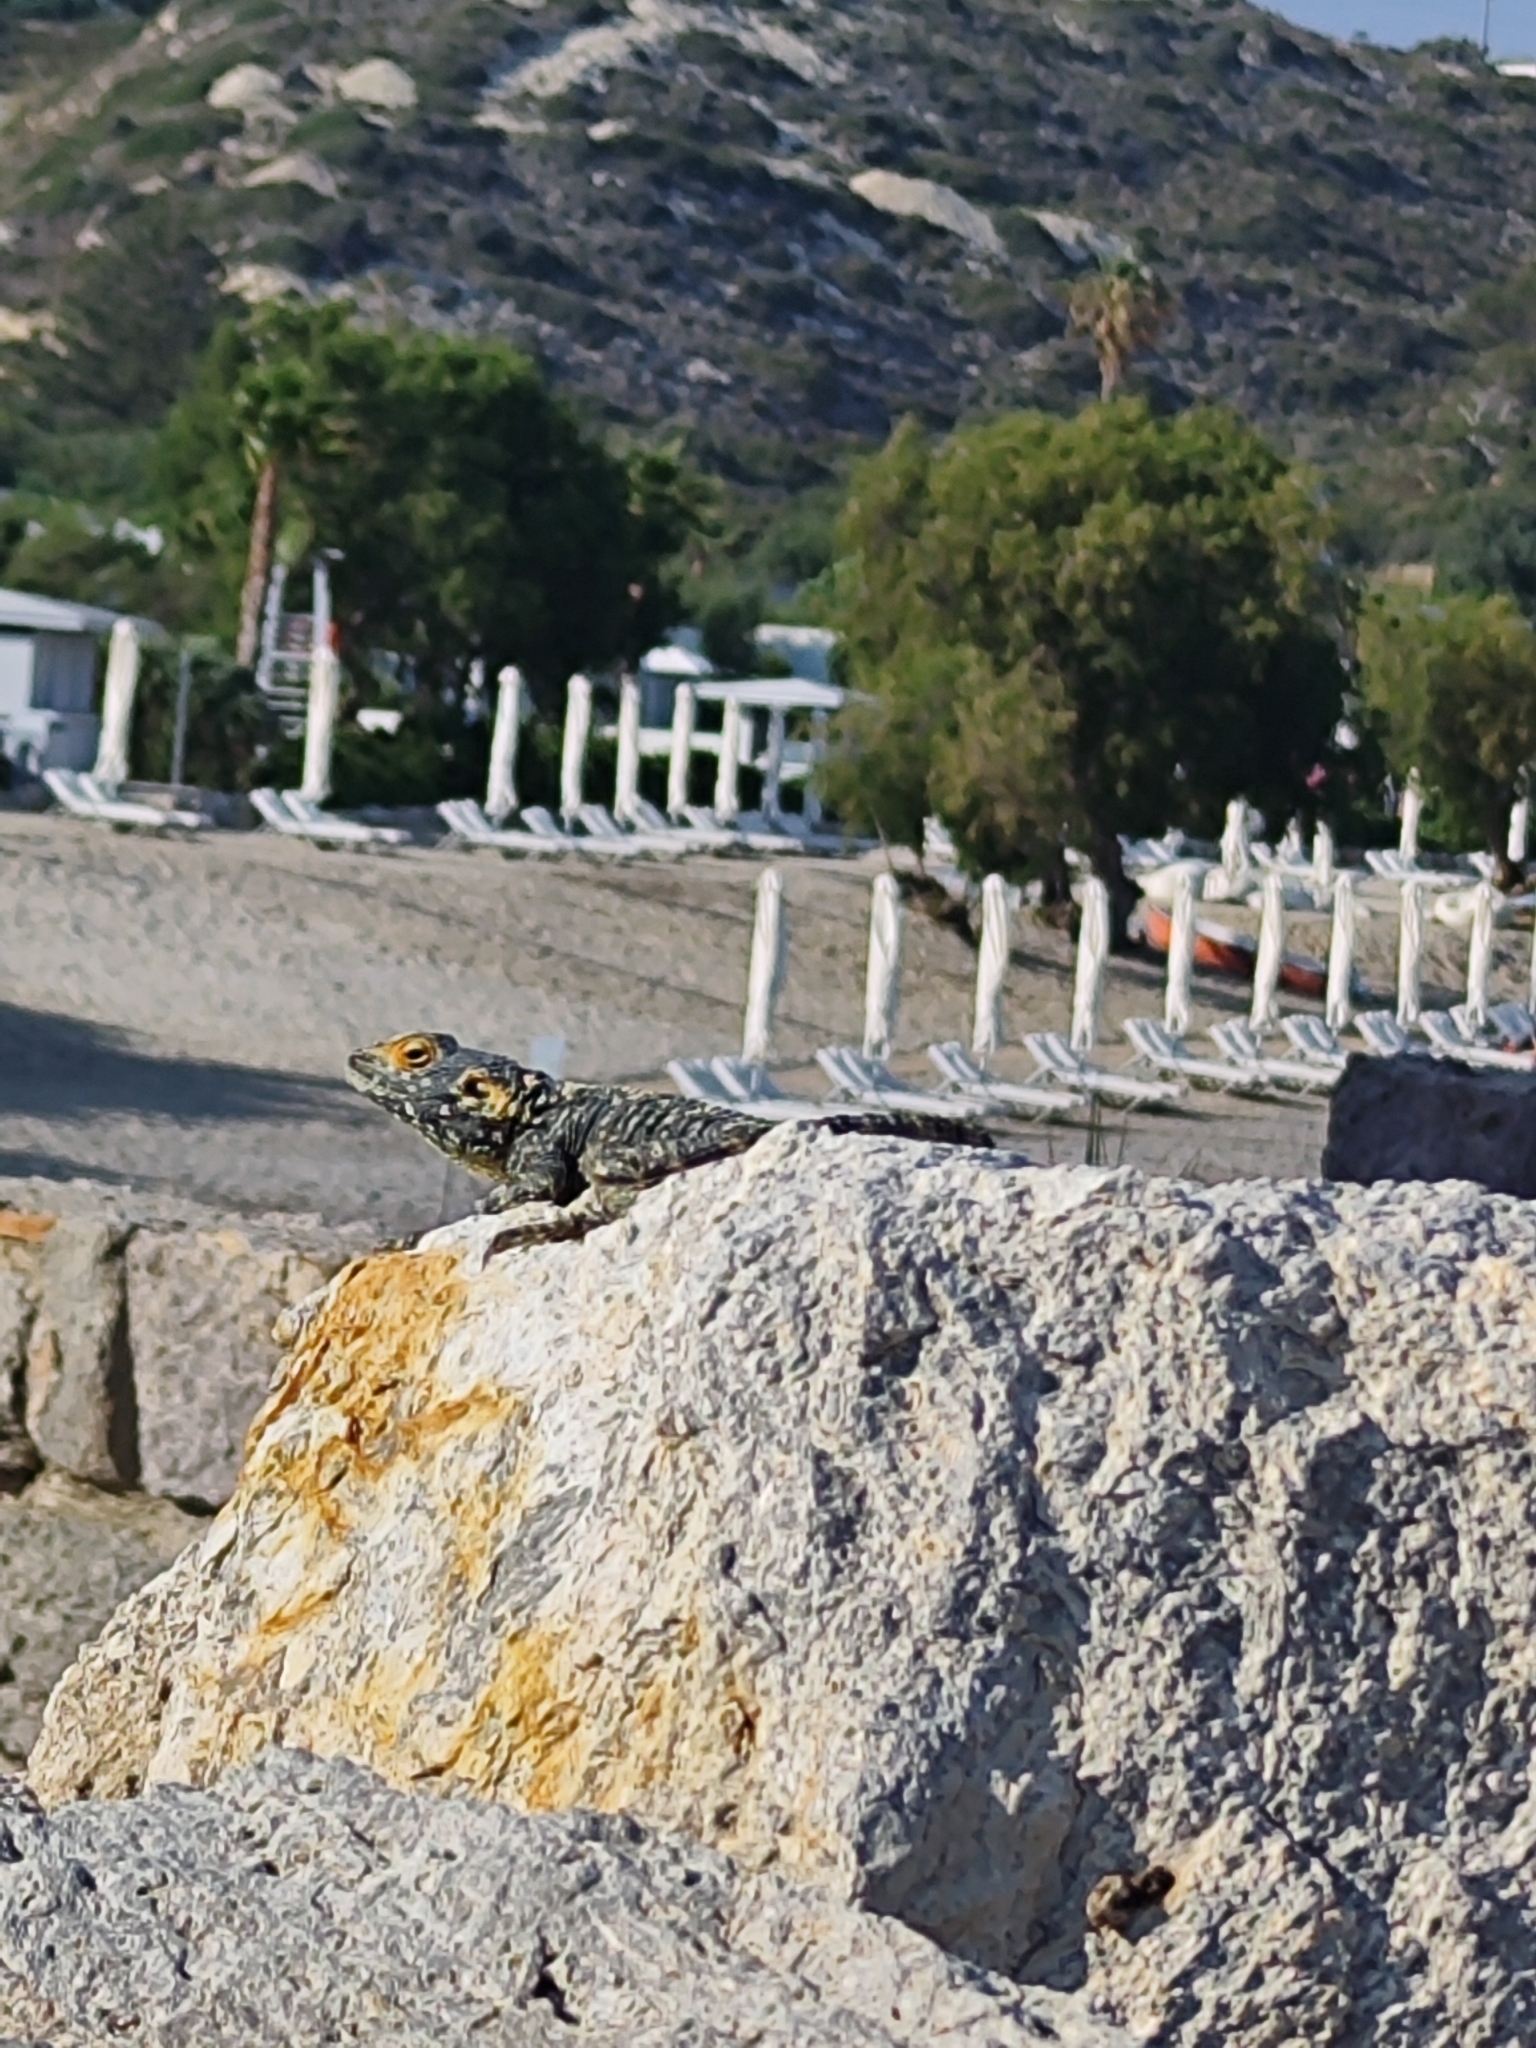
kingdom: Animalia
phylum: Chordata
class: Squamata
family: Agamidae
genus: Stellagama
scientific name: Stellagama stellio
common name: Starred agama
